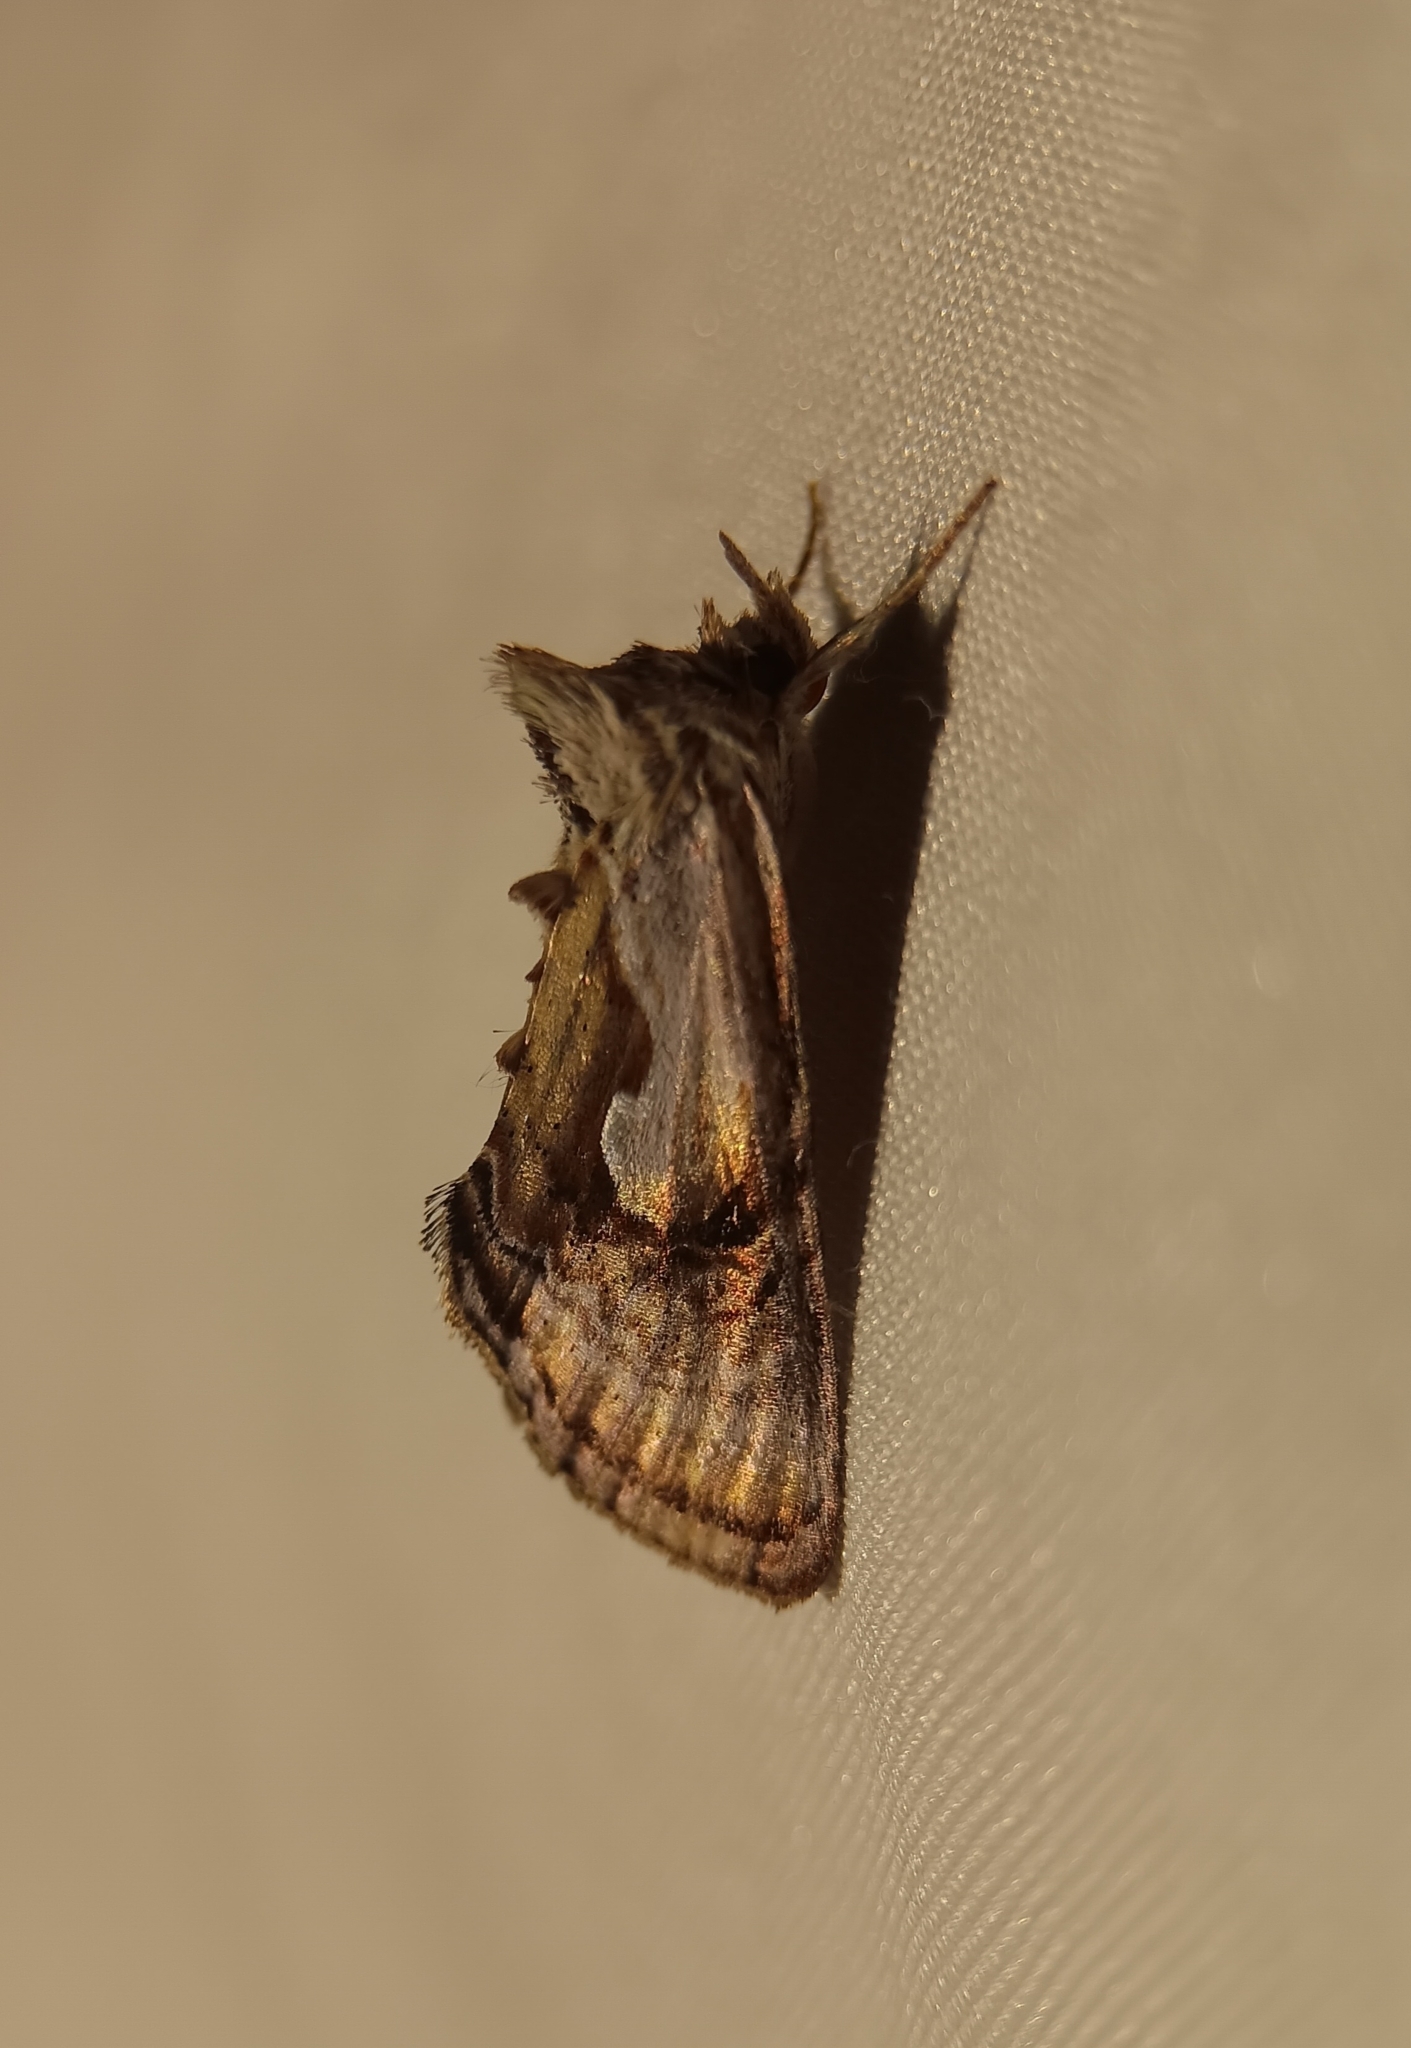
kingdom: Animalia
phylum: Arthropoda
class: Insecta
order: Lepidoptera
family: Noctuidae
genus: Chrysanympha
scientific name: Chrysanympha formosa
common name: Formosa looper moth
